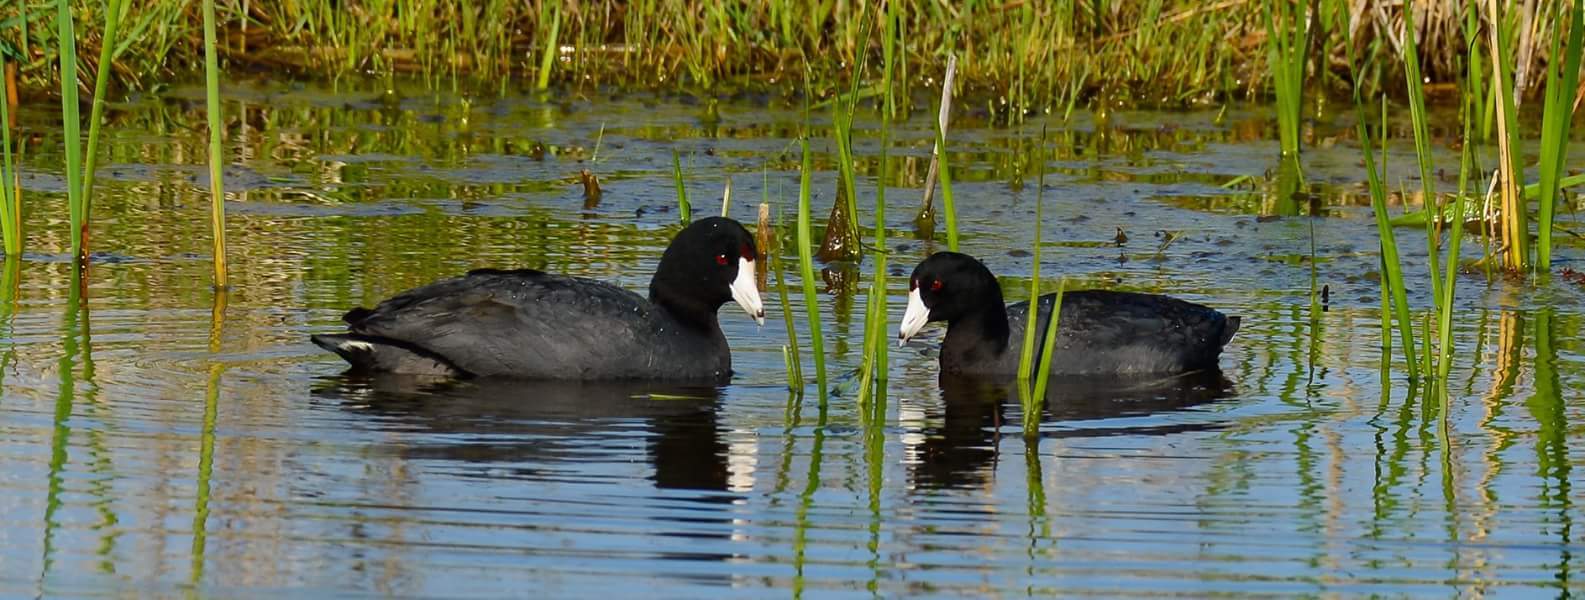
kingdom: Animalia
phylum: Chordata
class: Aves
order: Gruiformes
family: Rallidae
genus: Fulica
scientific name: Fulica americana
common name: American coot
